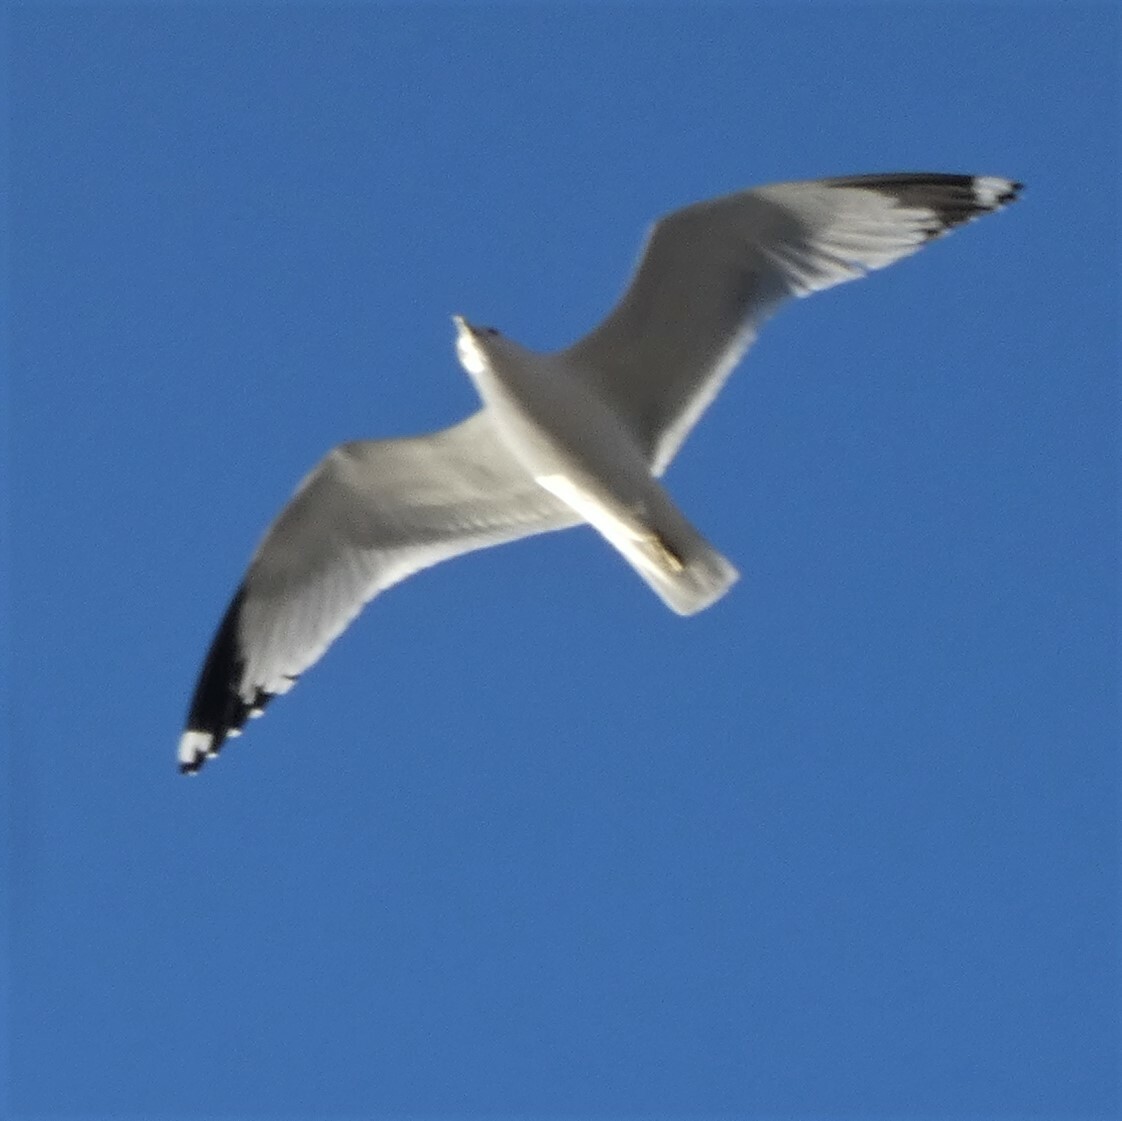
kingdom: Animalia
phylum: Chordata
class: Aves
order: Charadriiformes
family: Laridae
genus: Larus
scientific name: Larus delawarensis
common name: Ring-billed gull
